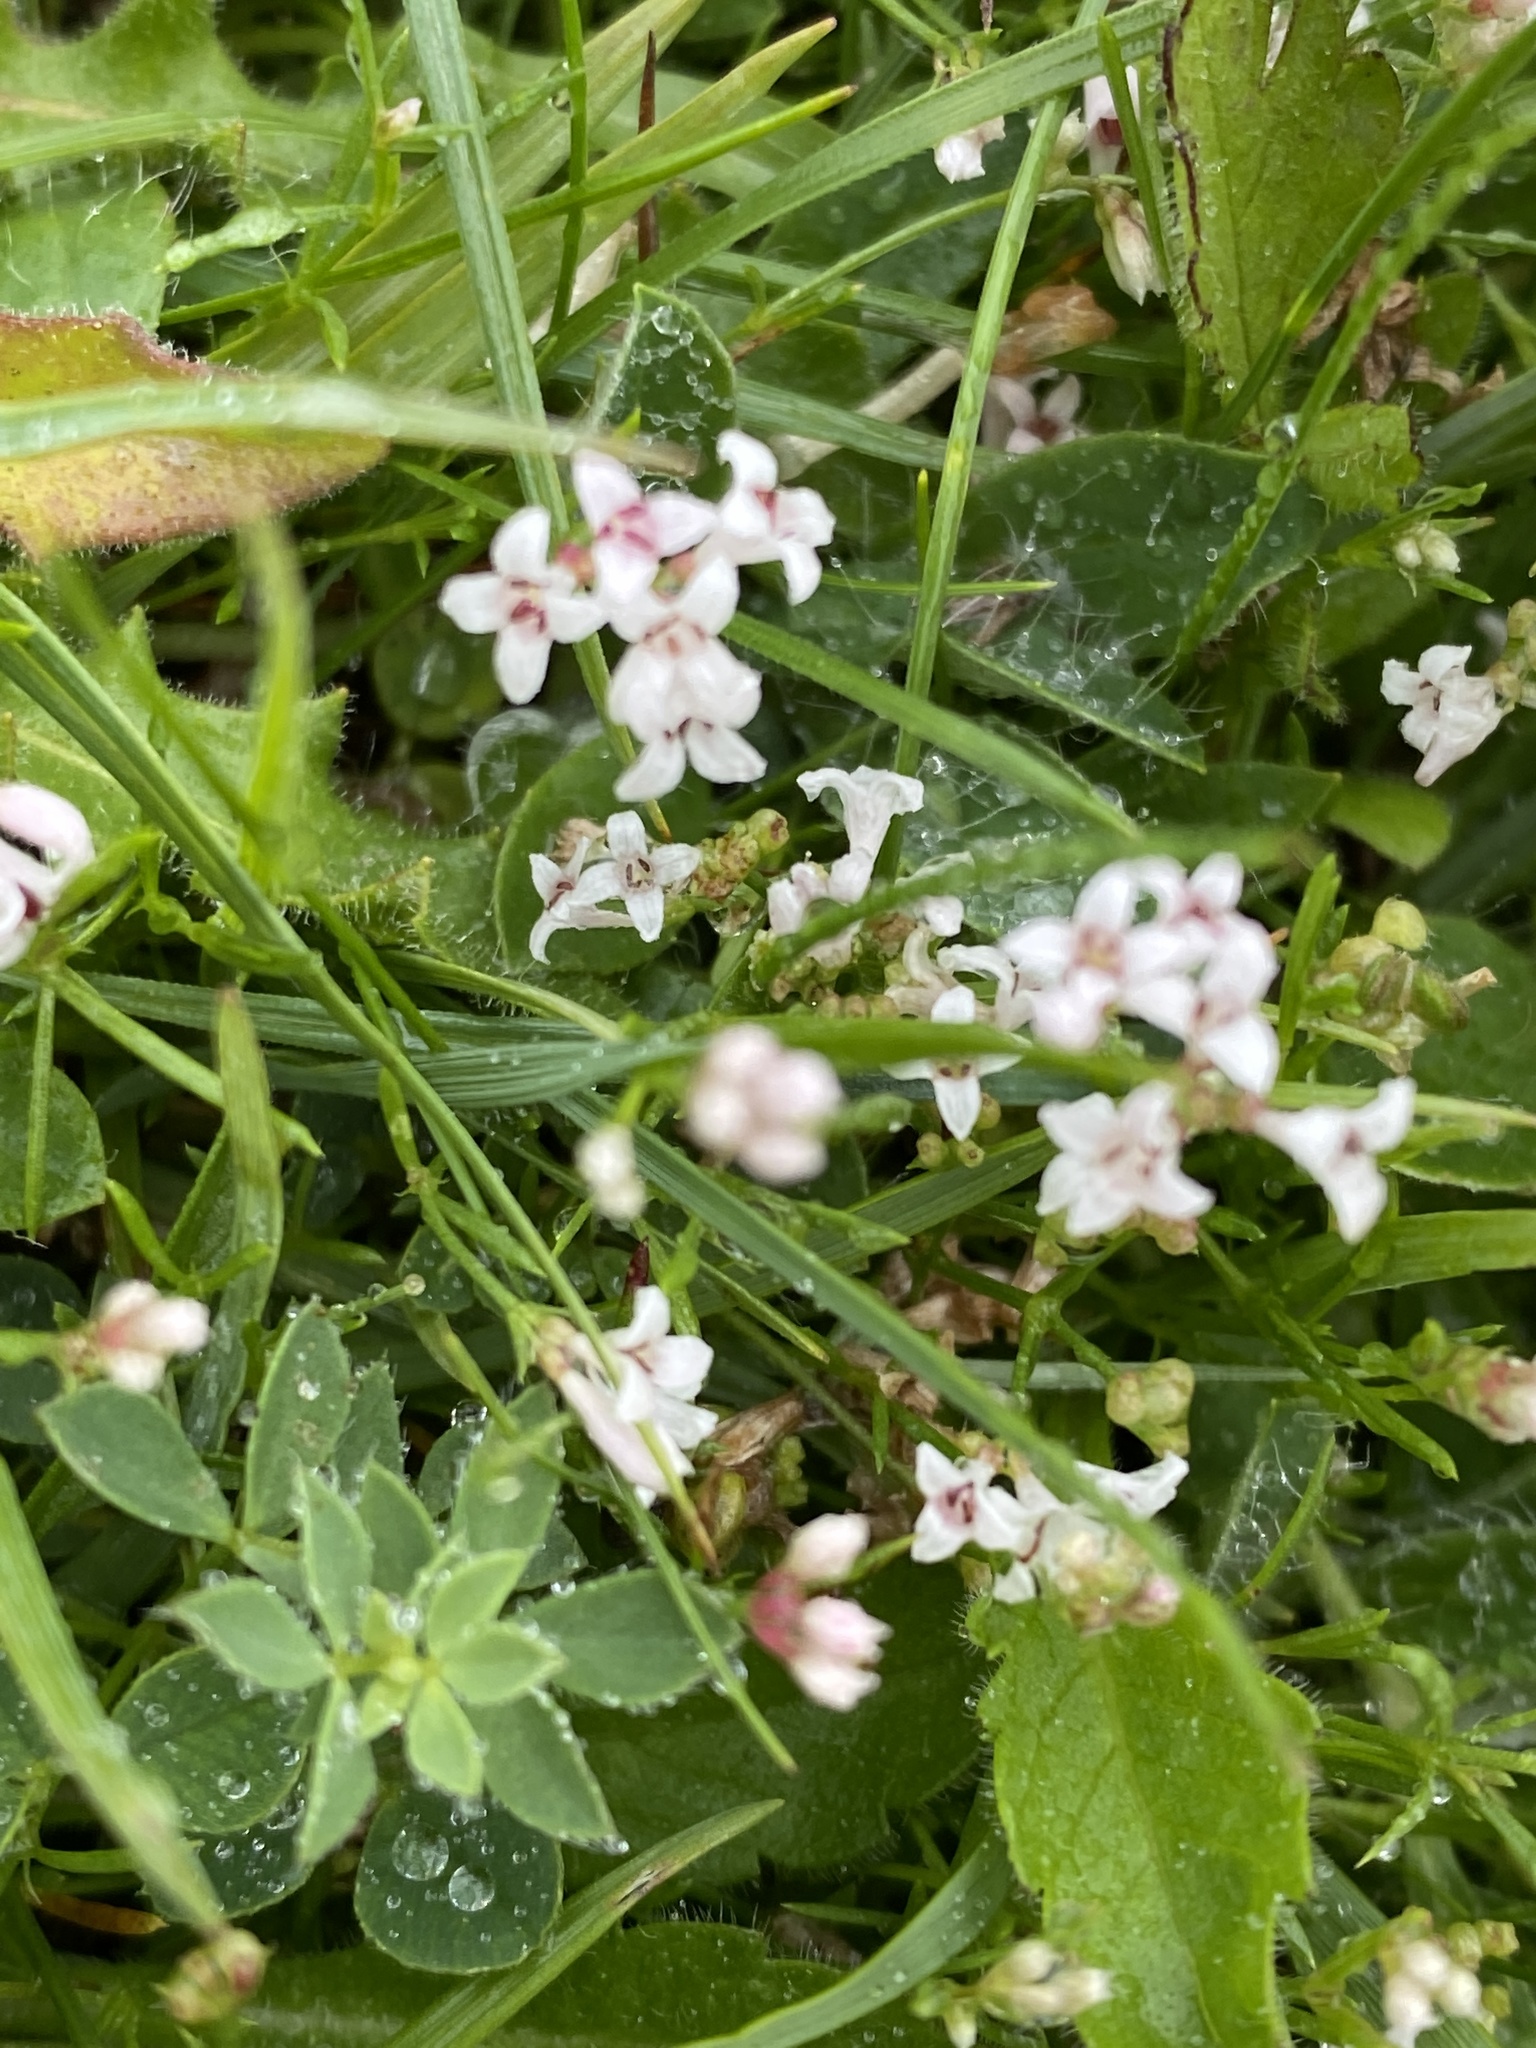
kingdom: Plantae
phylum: Tracheophyta
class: Magnoliopsida
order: Gentianales
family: Rubiaceae
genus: Cynanchica
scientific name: Cynanchica pyrenaica
